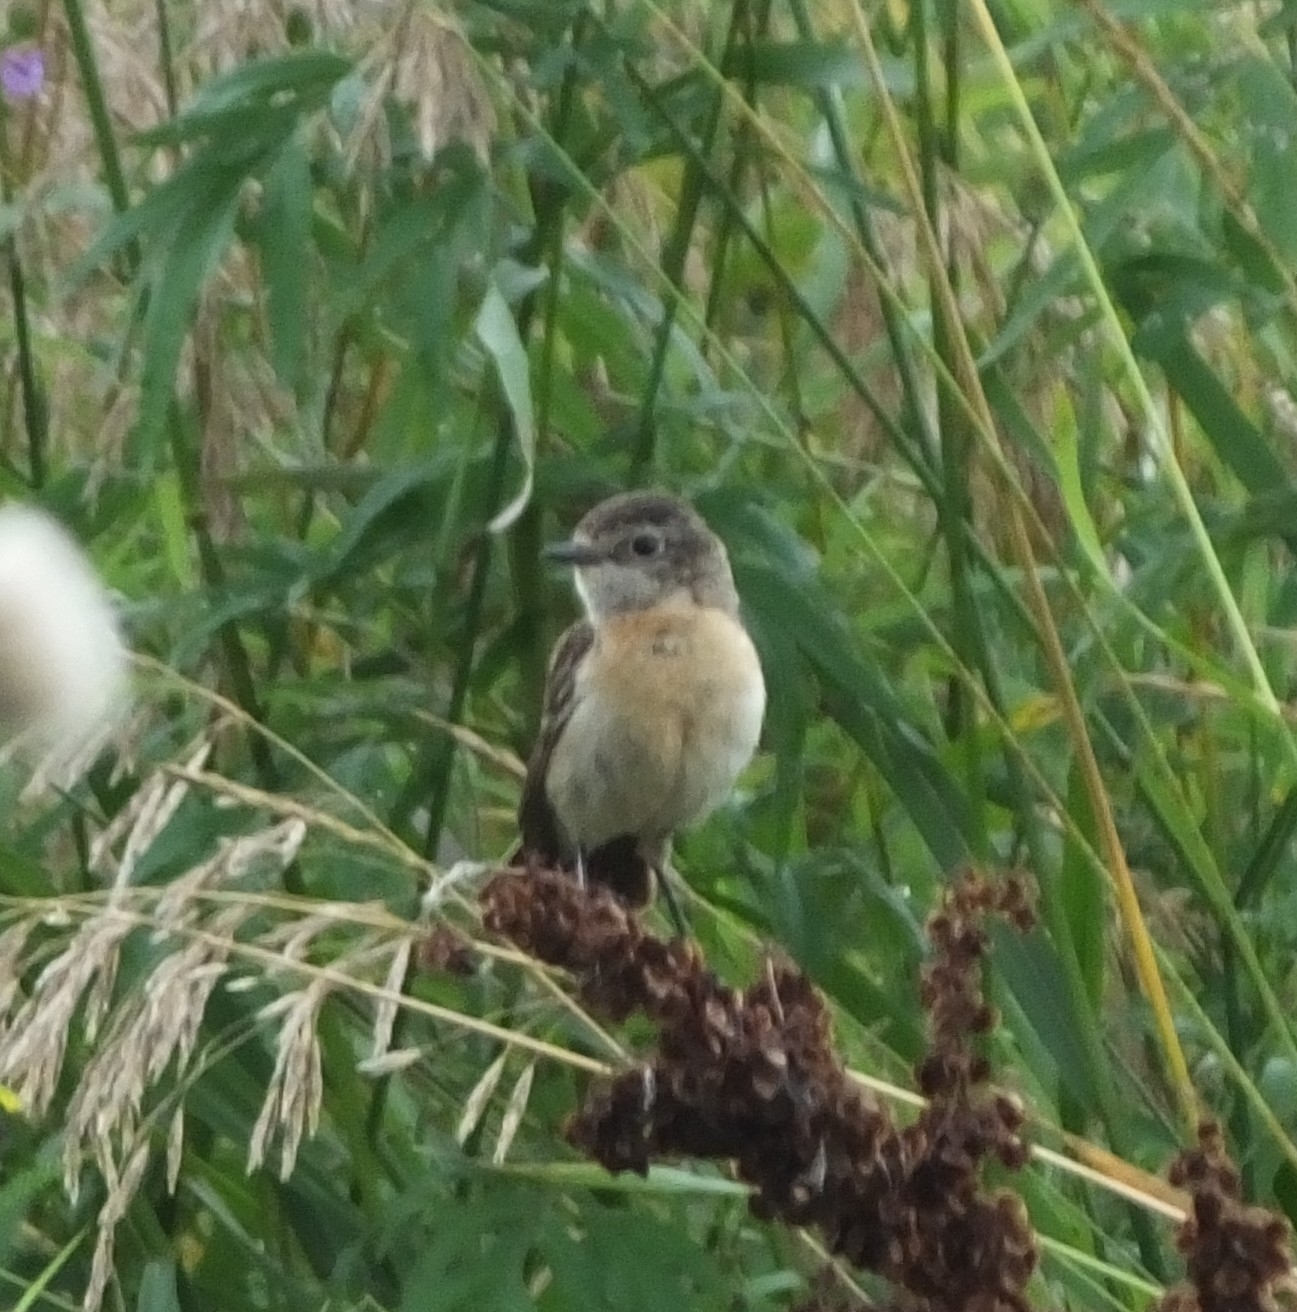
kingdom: Animalia
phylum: Chordata
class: Aves
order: Passeriformes
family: Muscicapidae
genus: Saxicola
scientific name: Saxicola maurus
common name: Siberian stonechat
